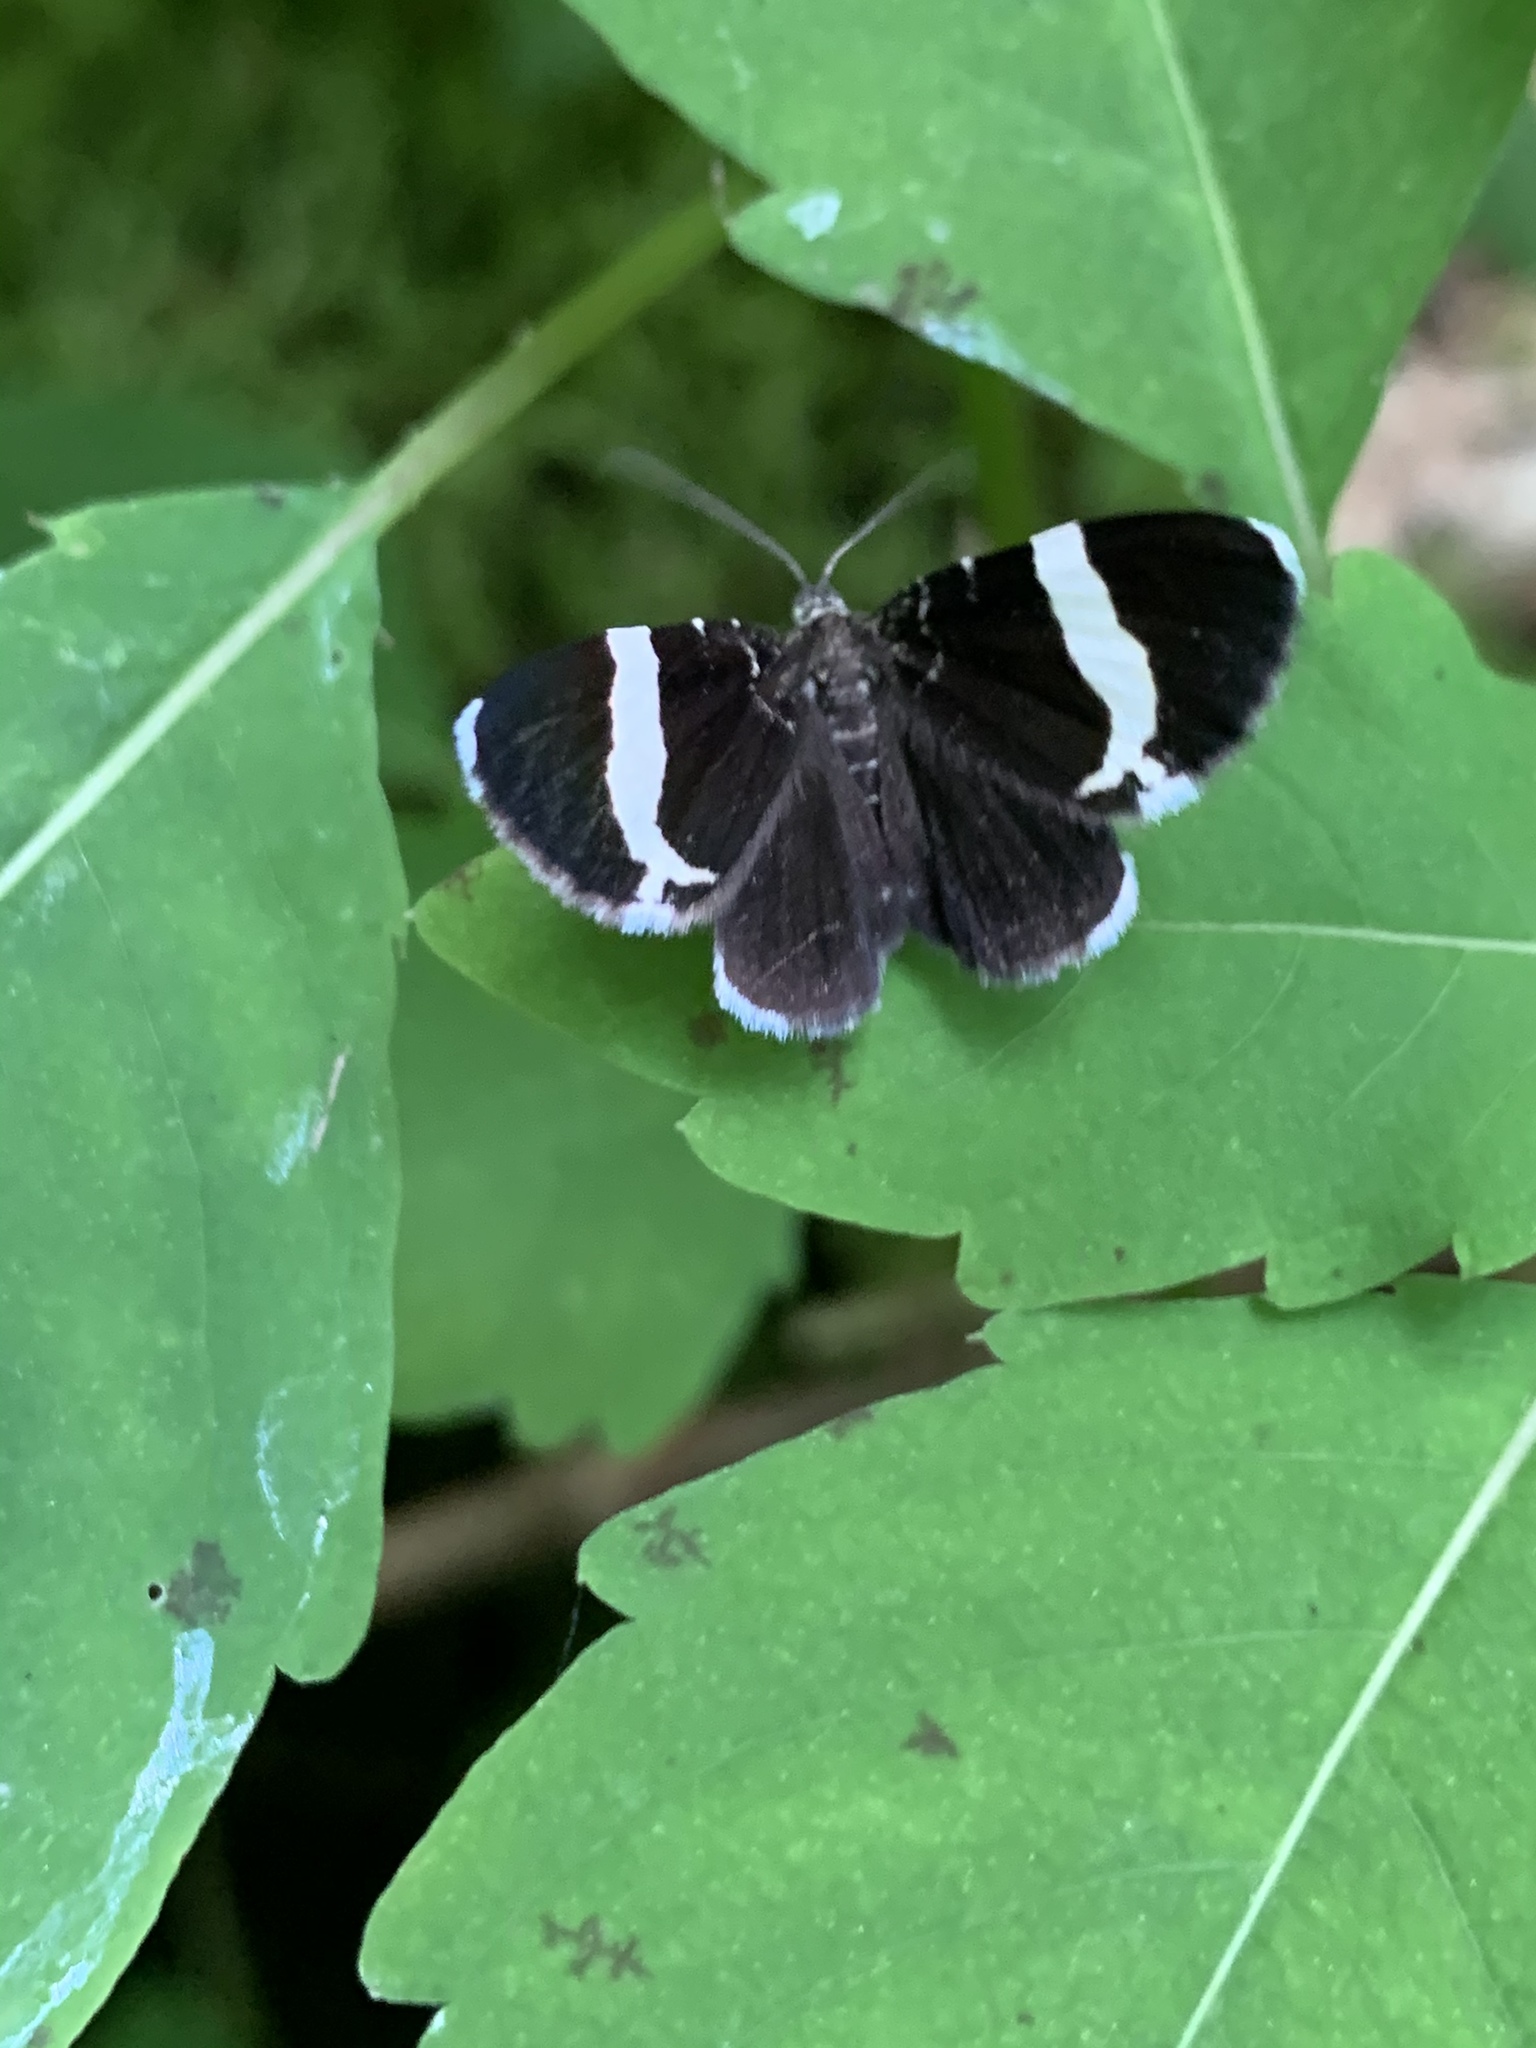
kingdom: Animalia
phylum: Arthropoda
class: Insecta
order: Lepidoptera
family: Geometridae
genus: Trichodezia
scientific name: Trichodezia albovittata
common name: White striped black
